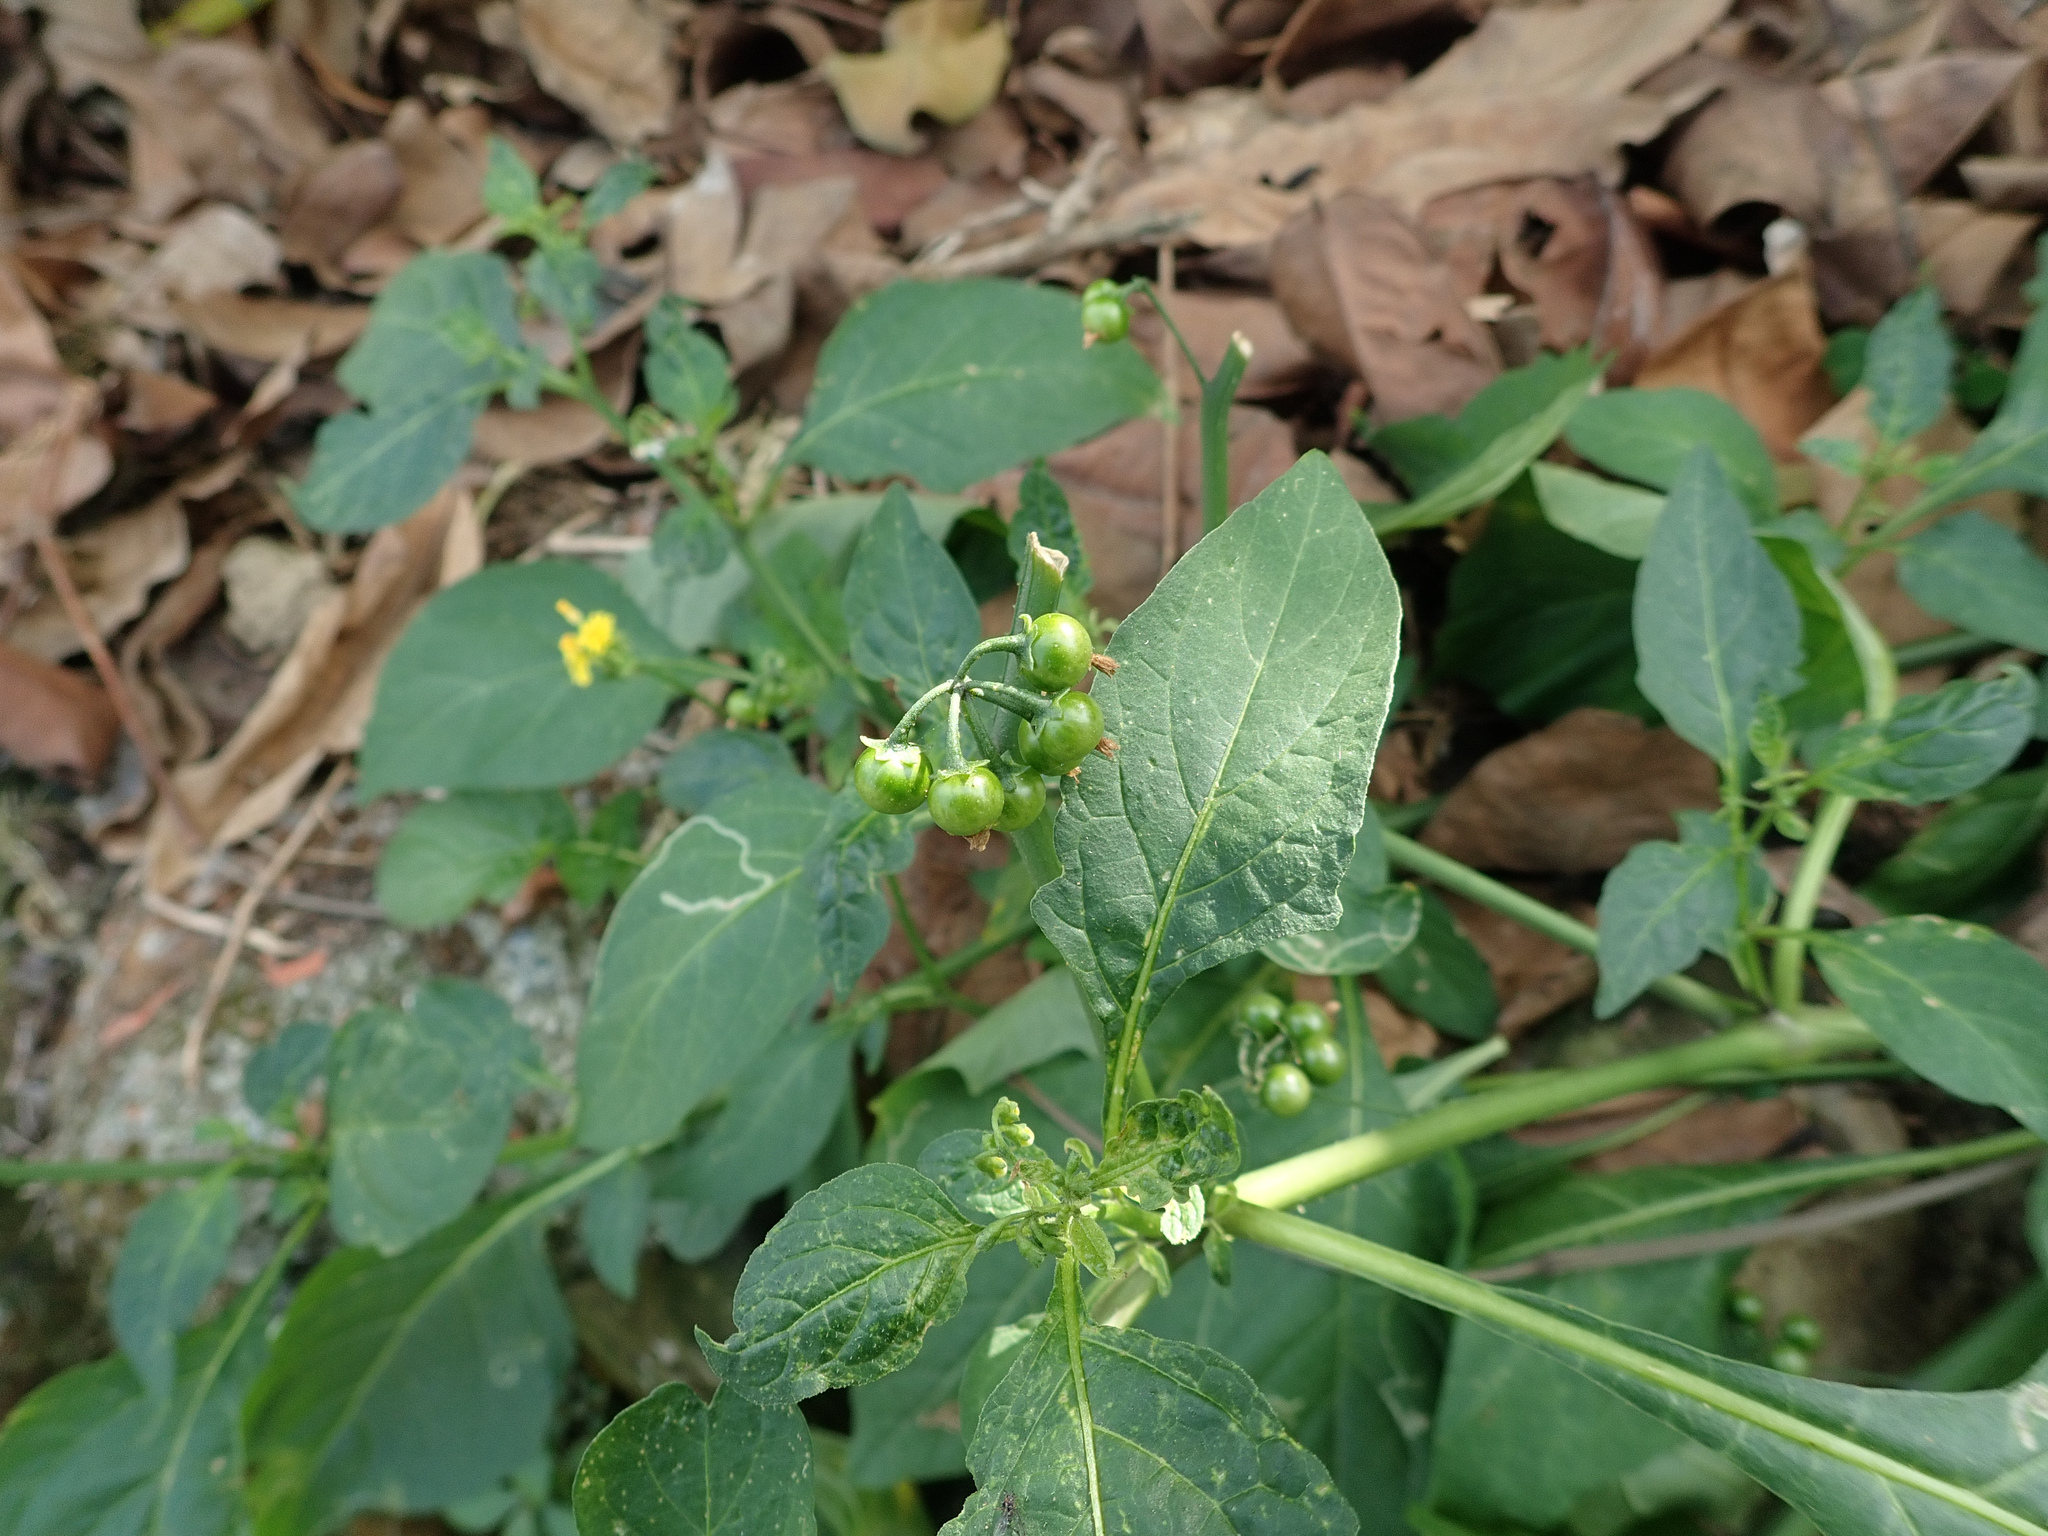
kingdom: Plantae
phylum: Tracheophyta
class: Magnoliopsida
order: Solanales
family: Solanaceae
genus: Solanum
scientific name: Solanum nigrum
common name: Black nightshade
